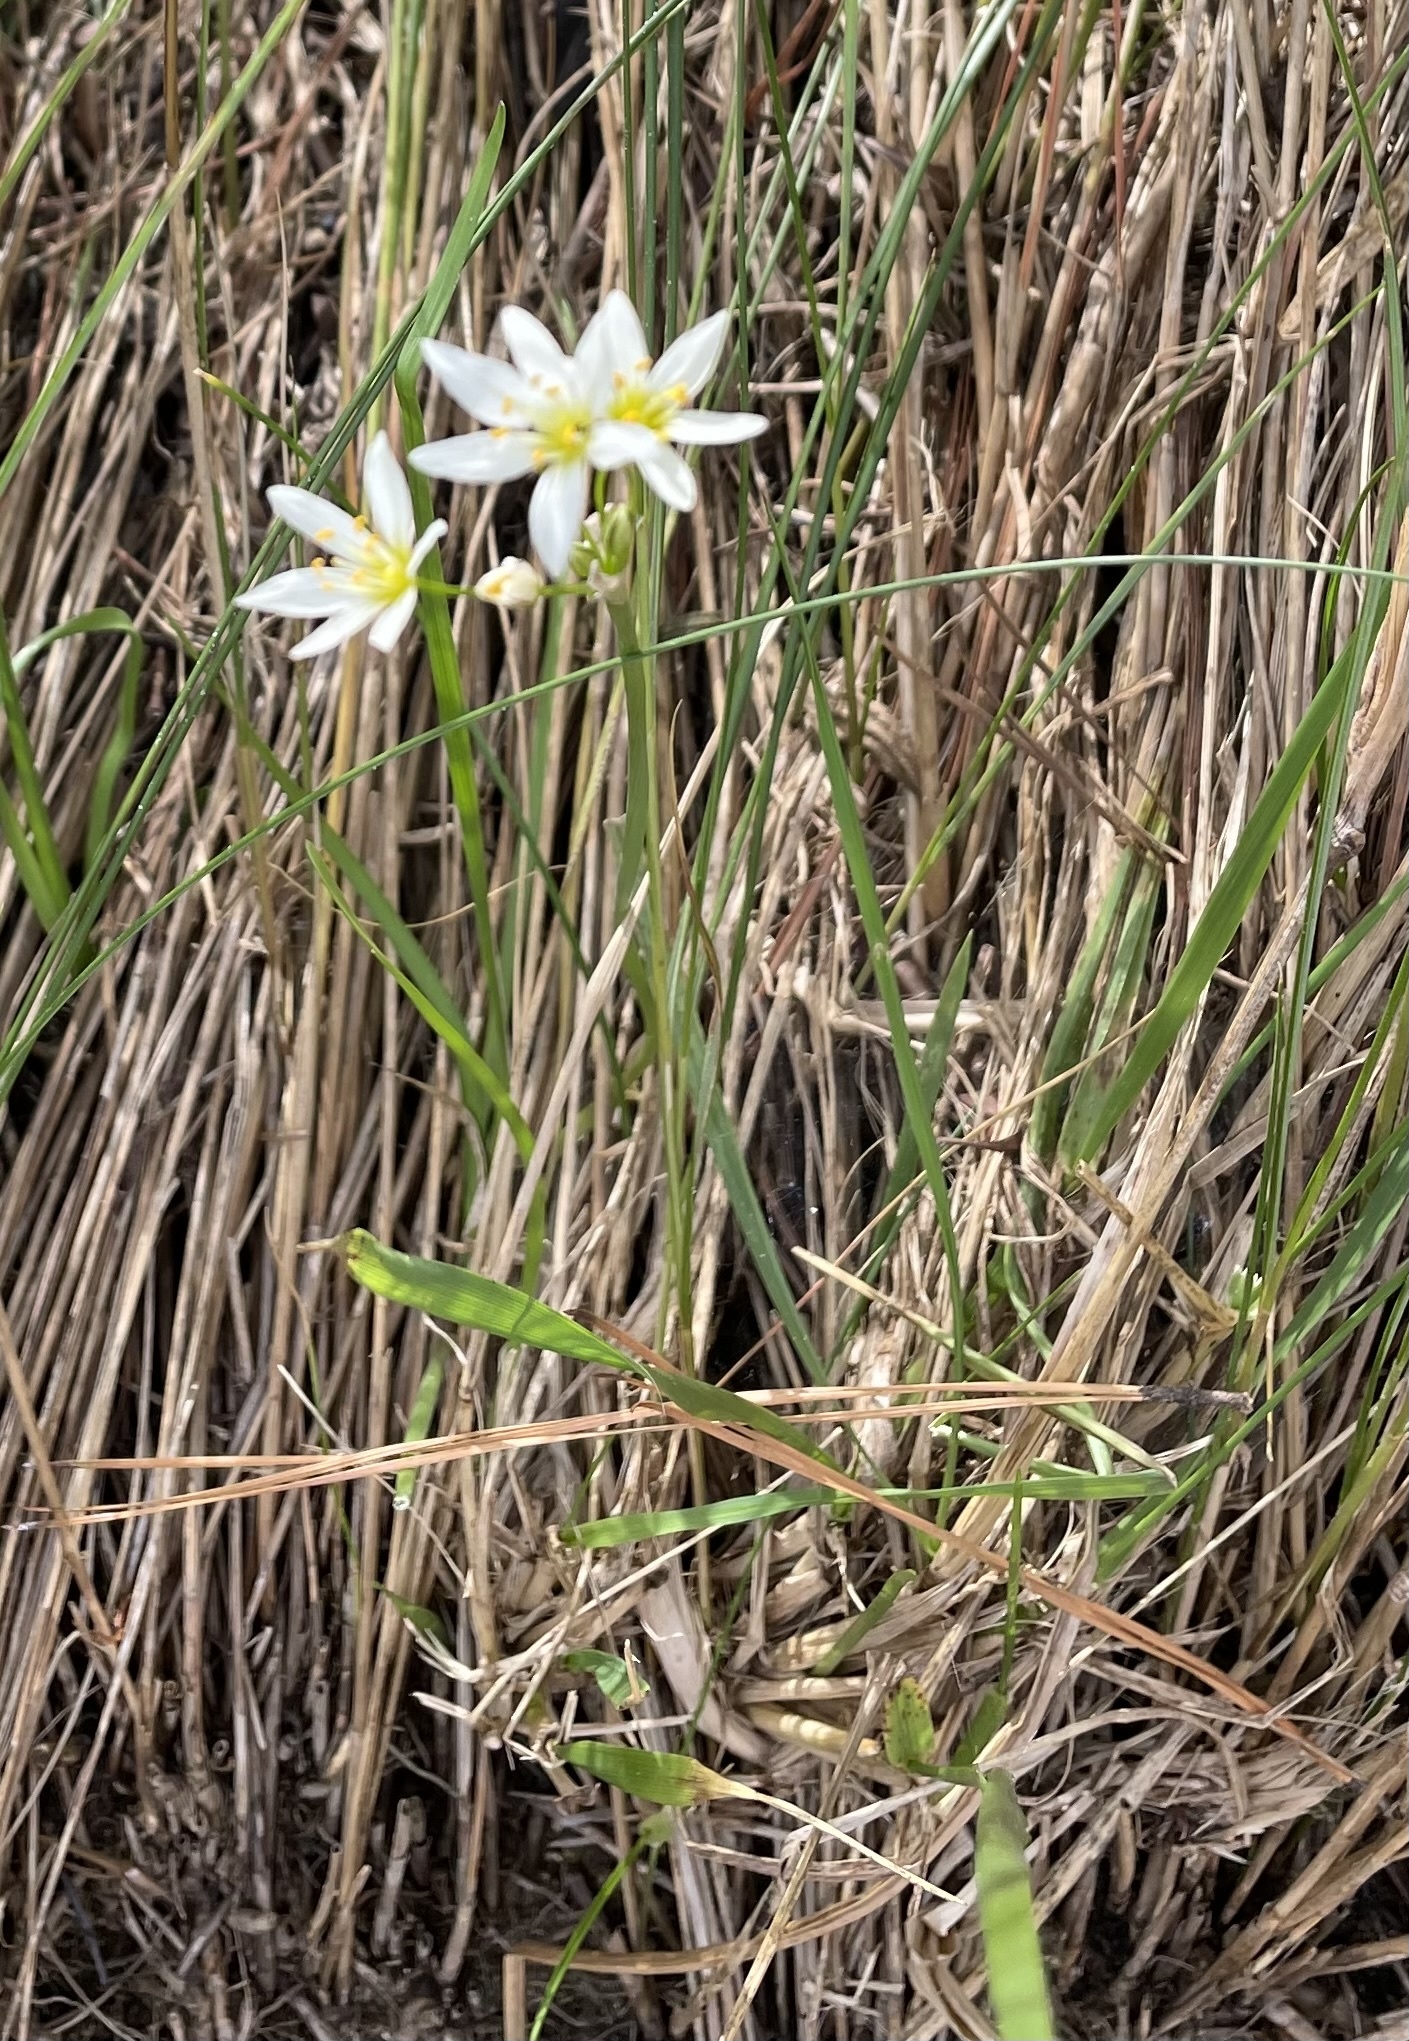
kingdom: Plantae
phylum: Tracheophyta
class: Liliopsida
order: Asparagales
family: Amaryllidaceae
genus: Nothoscordum
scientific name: Nothoscordum bivalve
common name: Crow-poison
